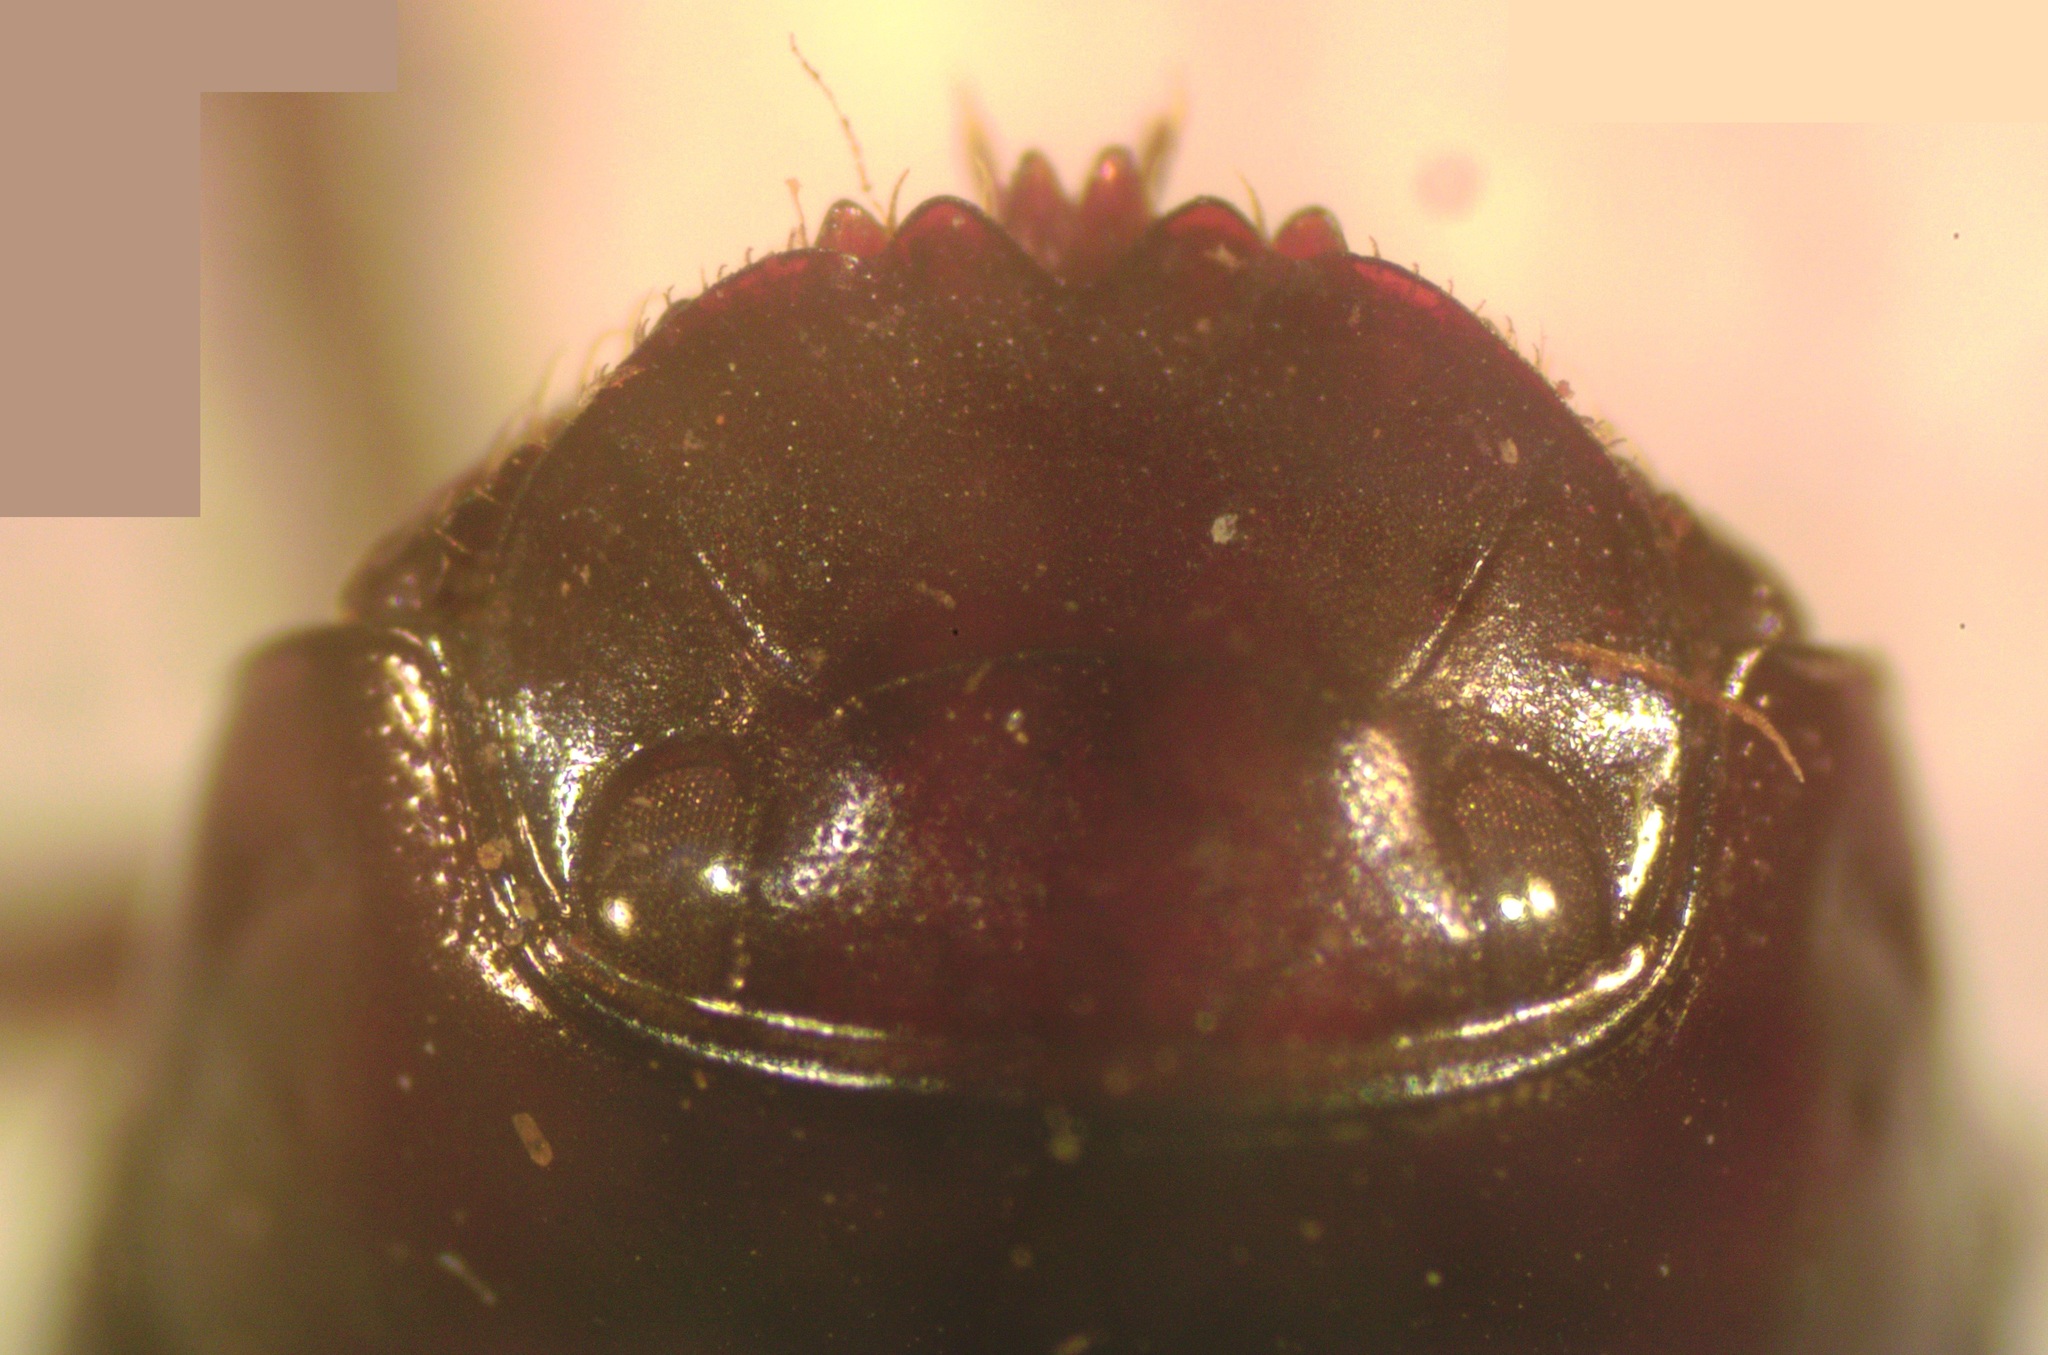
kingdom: Animalia
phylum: Arthropoda
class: Insecta
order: Coleoptera
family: Scarabaeidae
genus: Scatimus
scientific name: Scatimus ovatus
